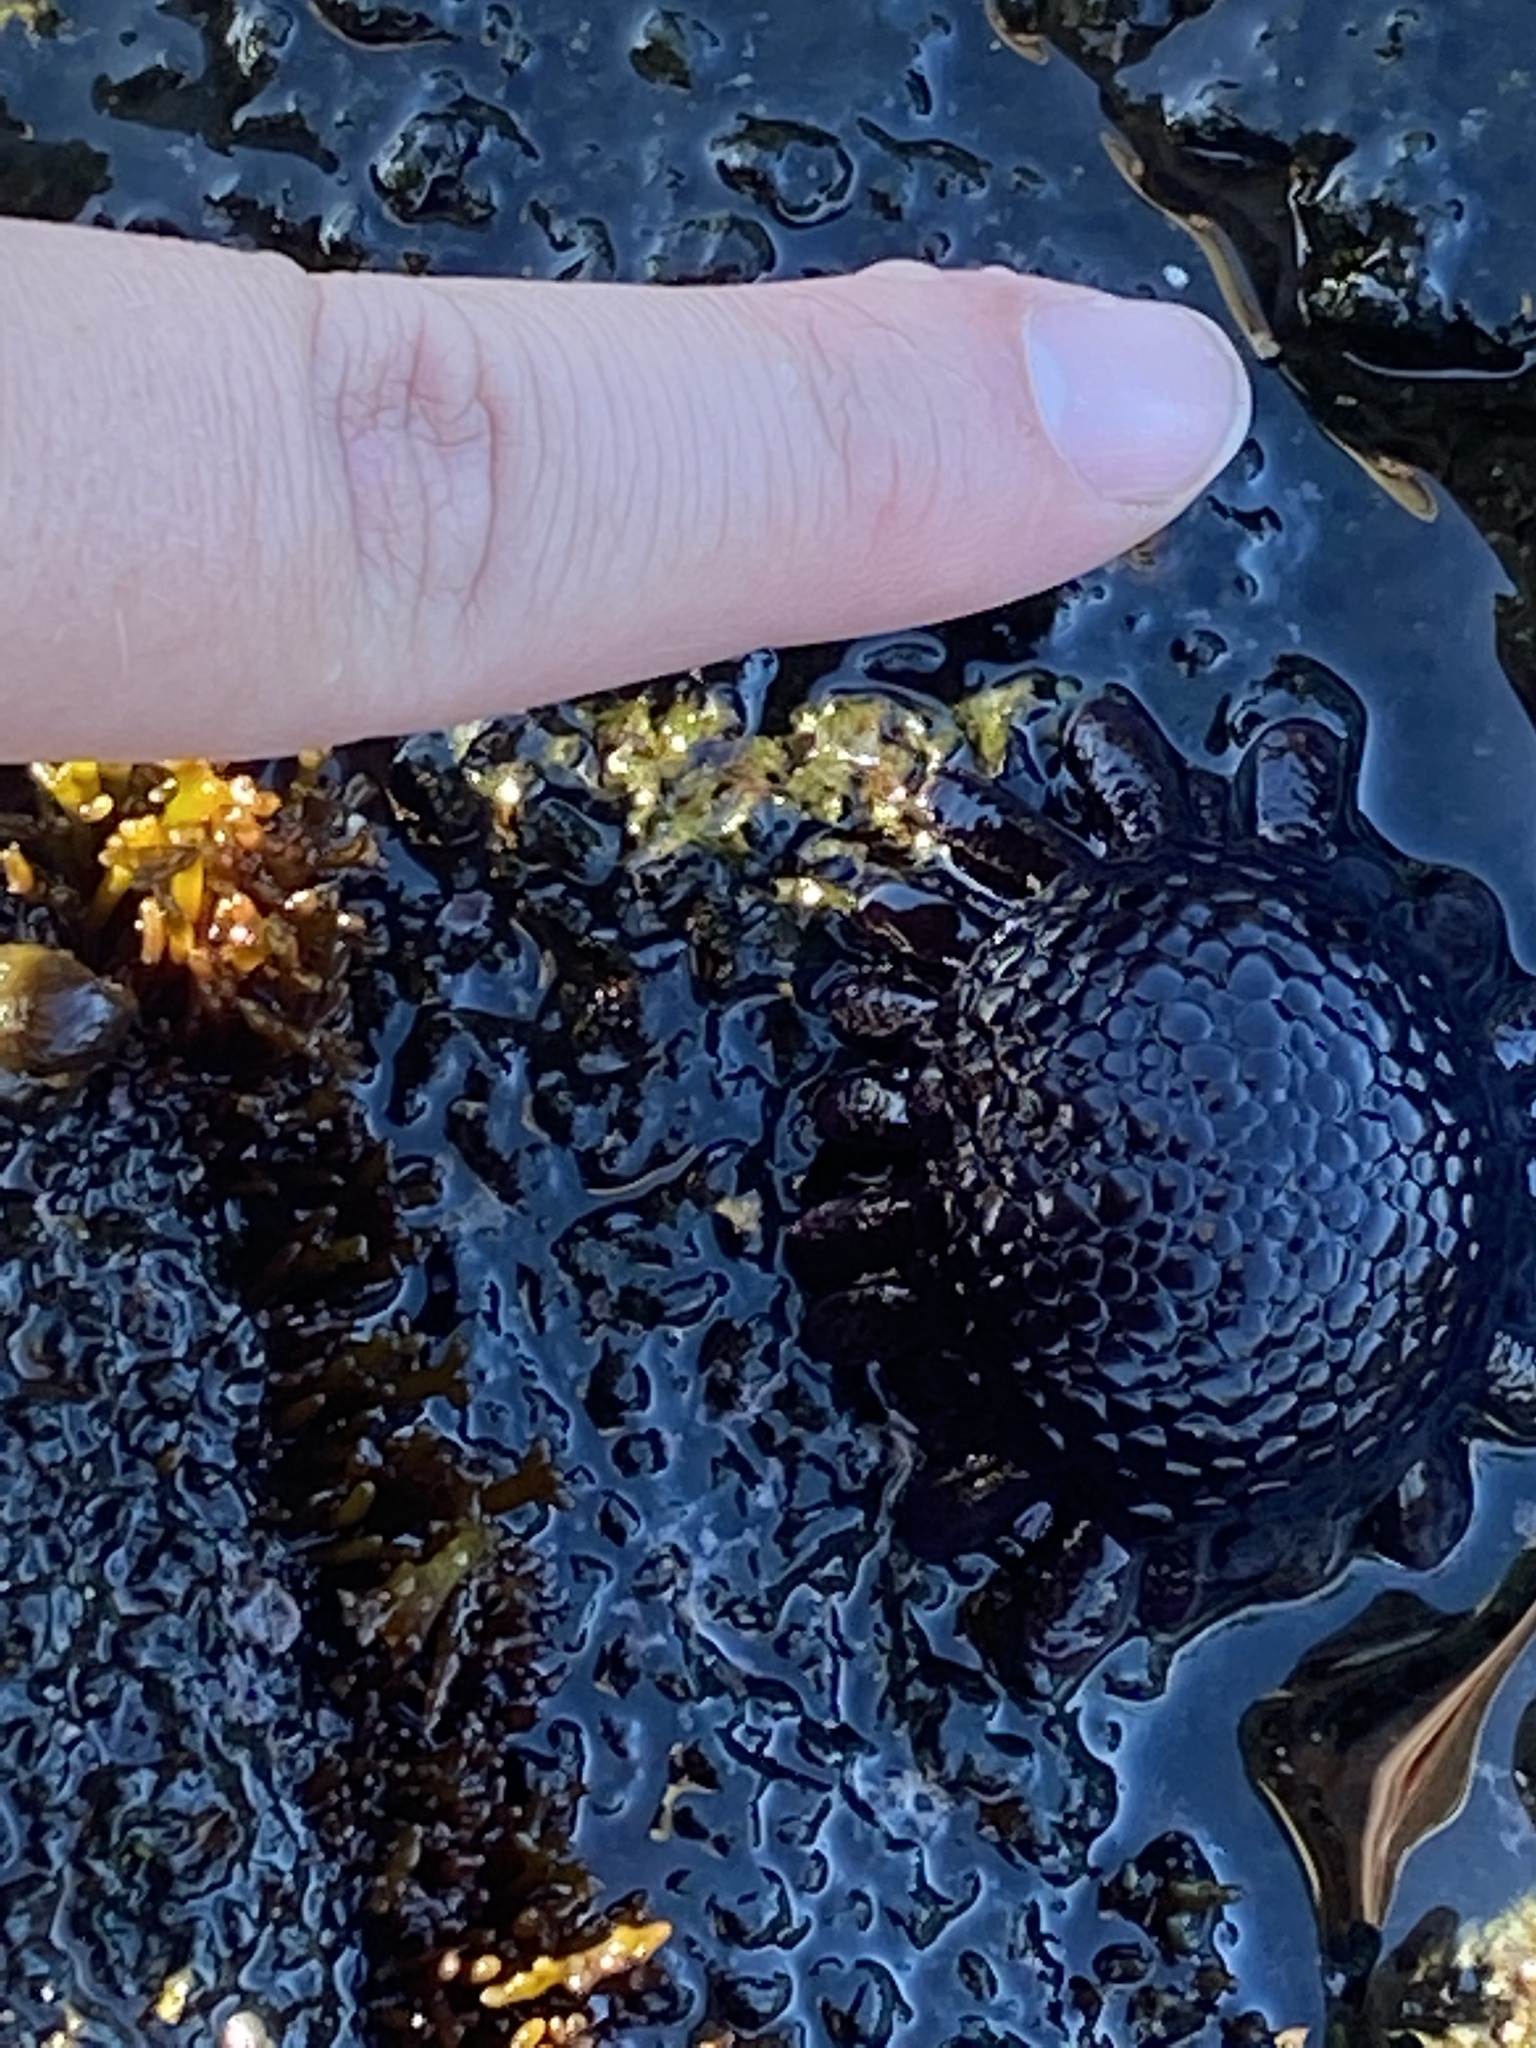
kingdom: Animalia
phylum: Echinodermata
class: Echinoidea
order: Camarodonta
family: Echinometridae
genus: Colobocentrotus
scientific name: Colobocentrotus atratus
